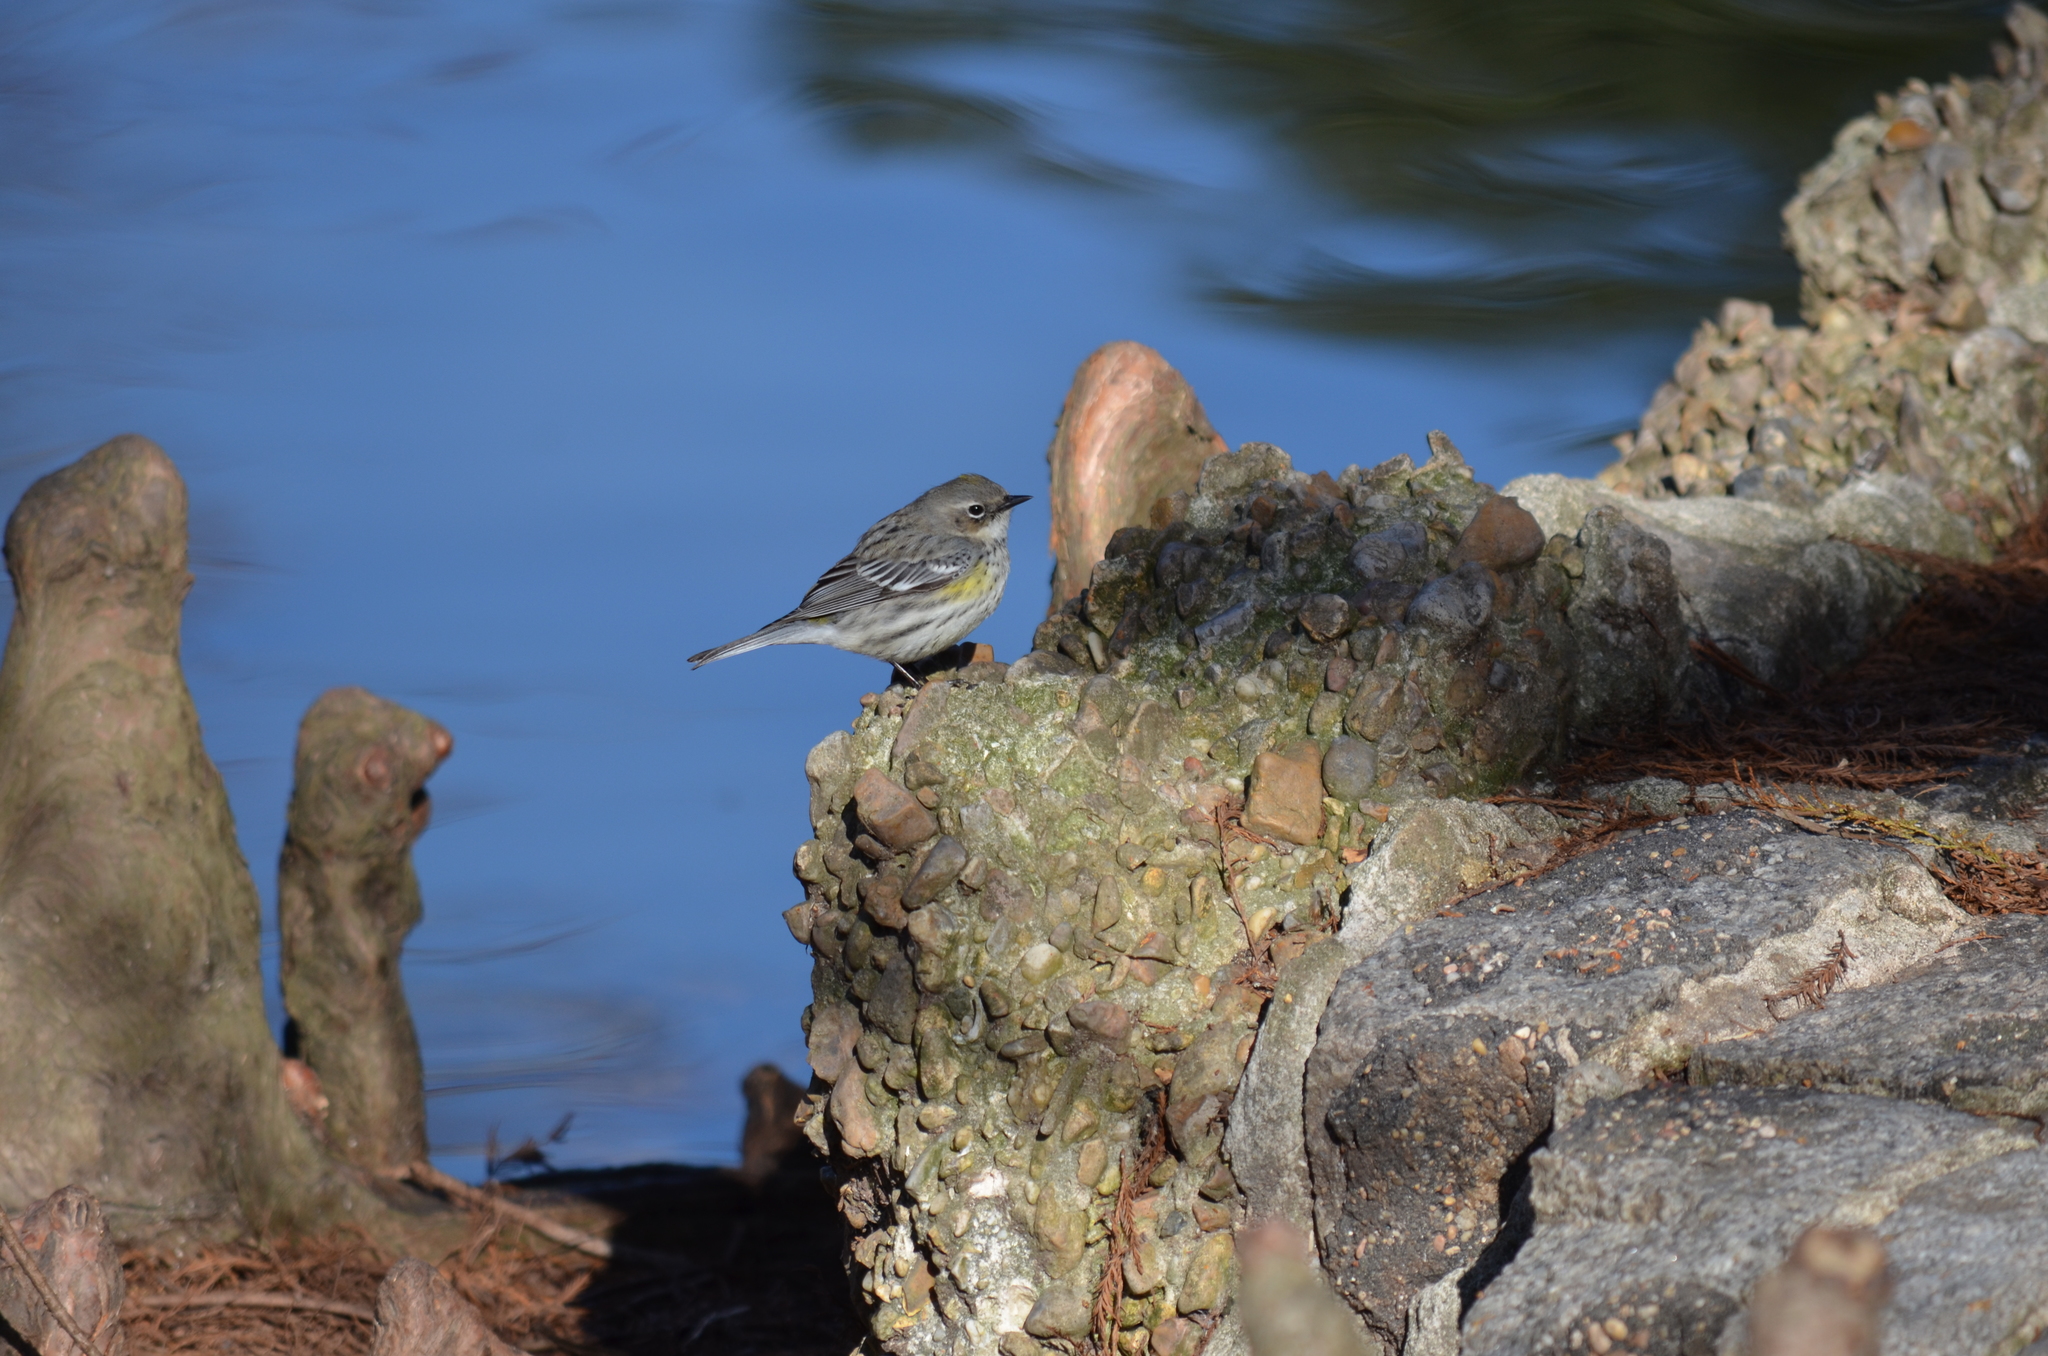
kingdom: Animalia
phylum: Chordata
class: Aves
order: Passeriformes
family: Parulidae
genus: Setophaga
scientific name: Setophaga coronata
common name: Myrtle warbler
